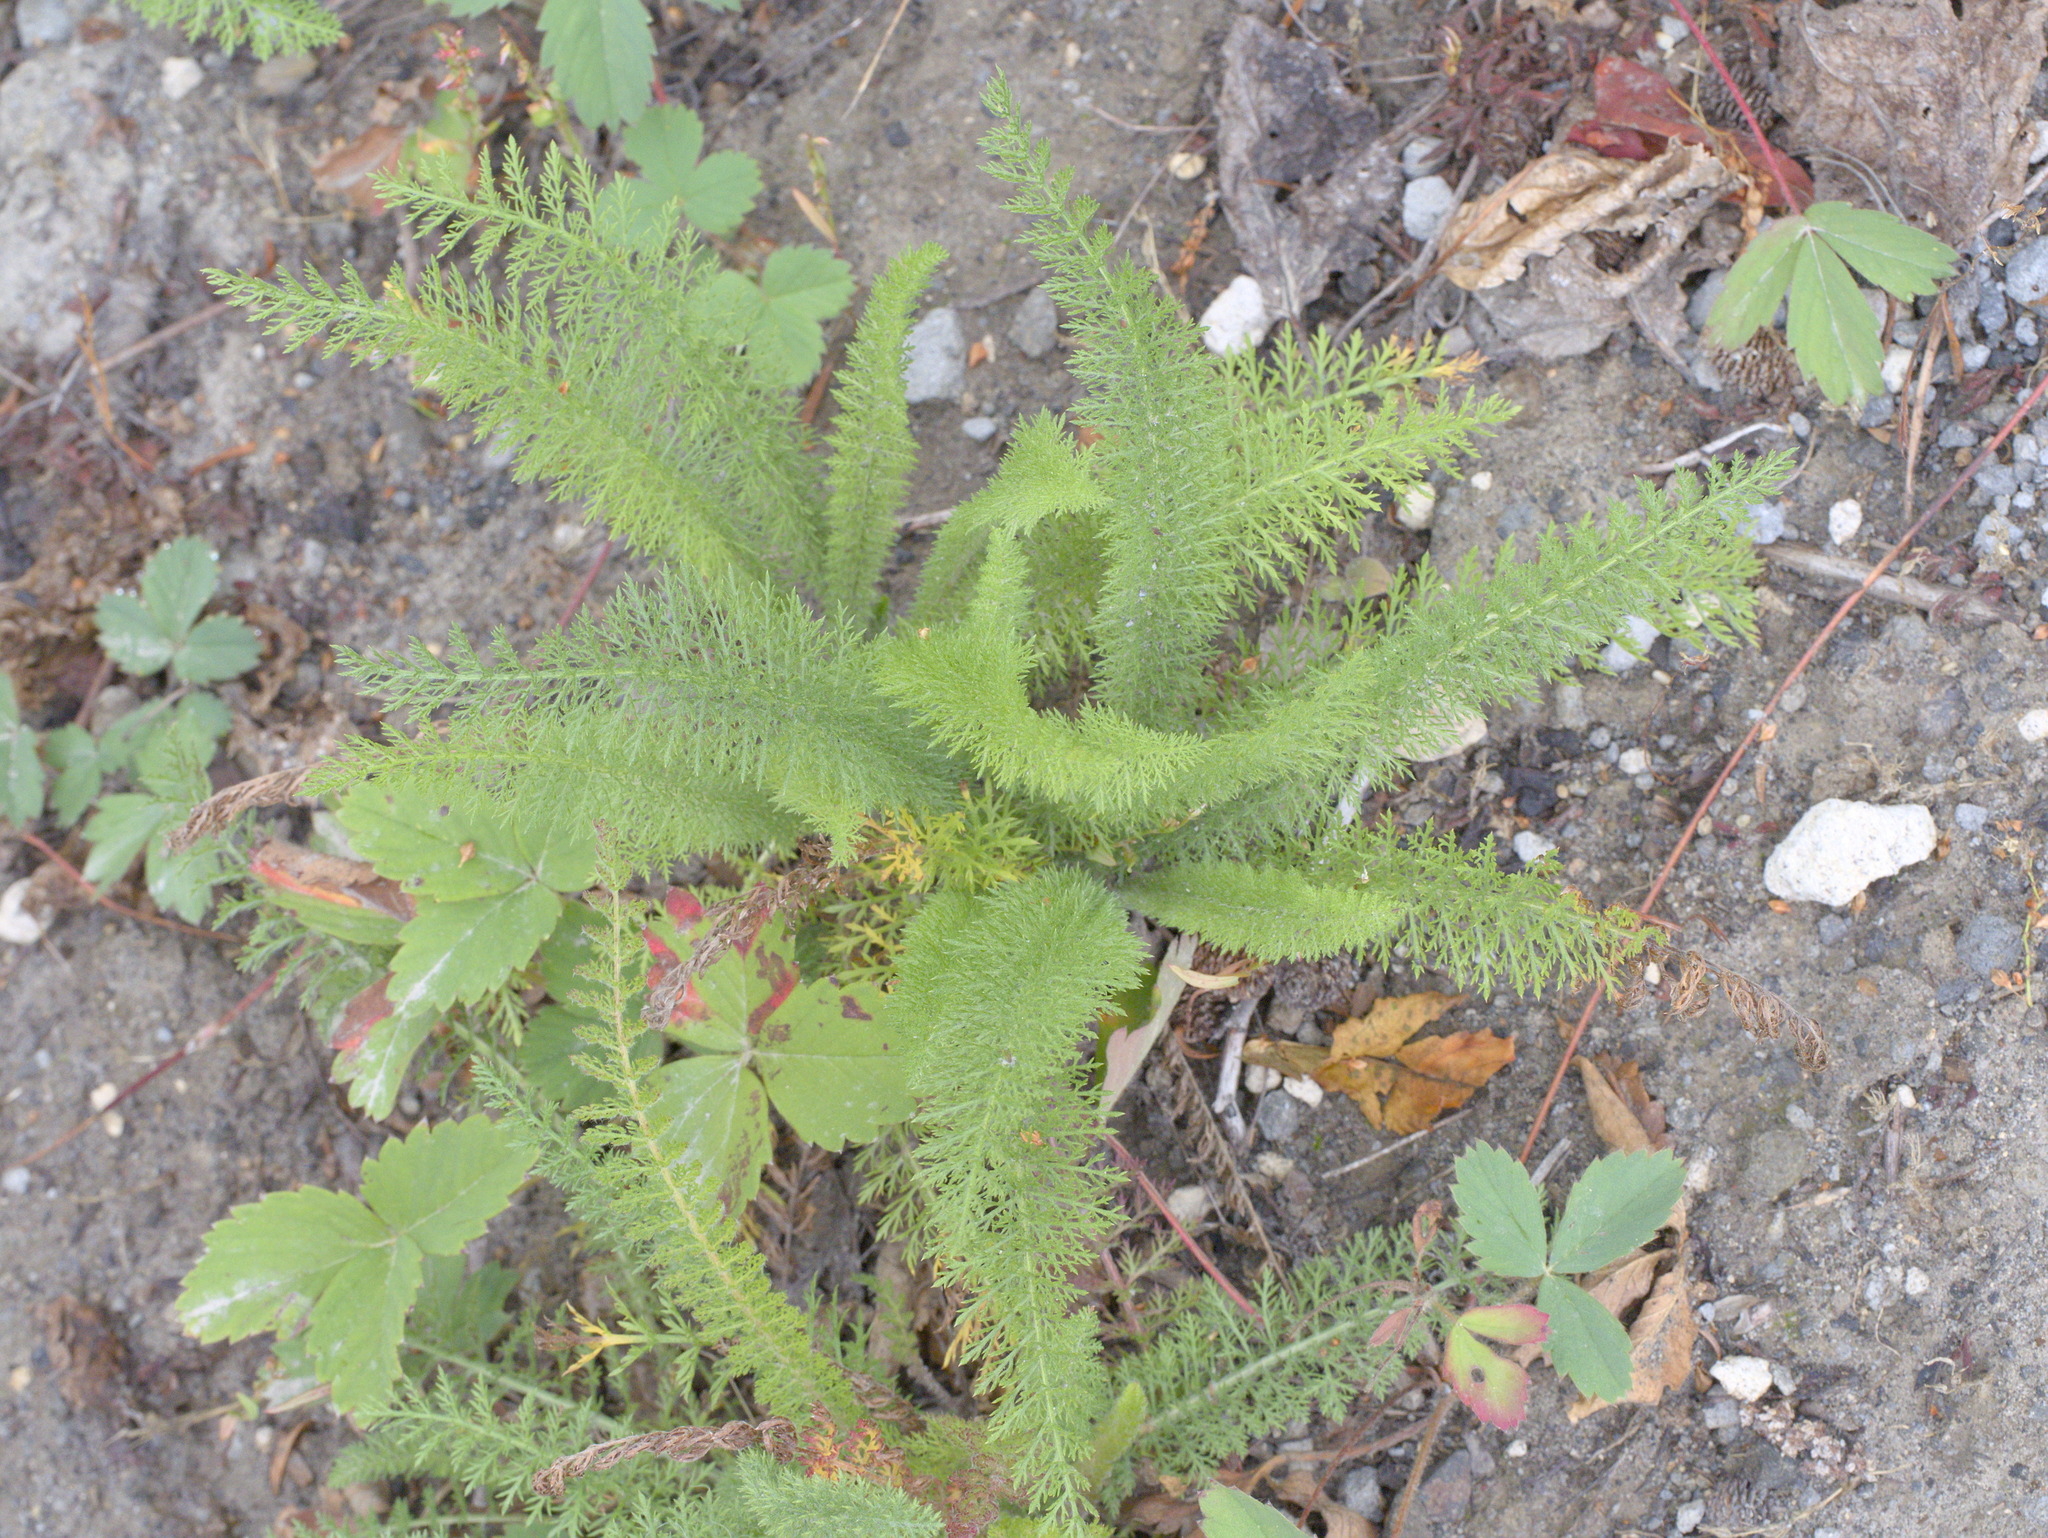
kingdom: Plantae
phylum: Tracheophyta
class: Magnoliopsida
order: Asterales
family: Asteraceae
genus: Achillea
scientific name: Achillea millefolium
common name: Yarrow
